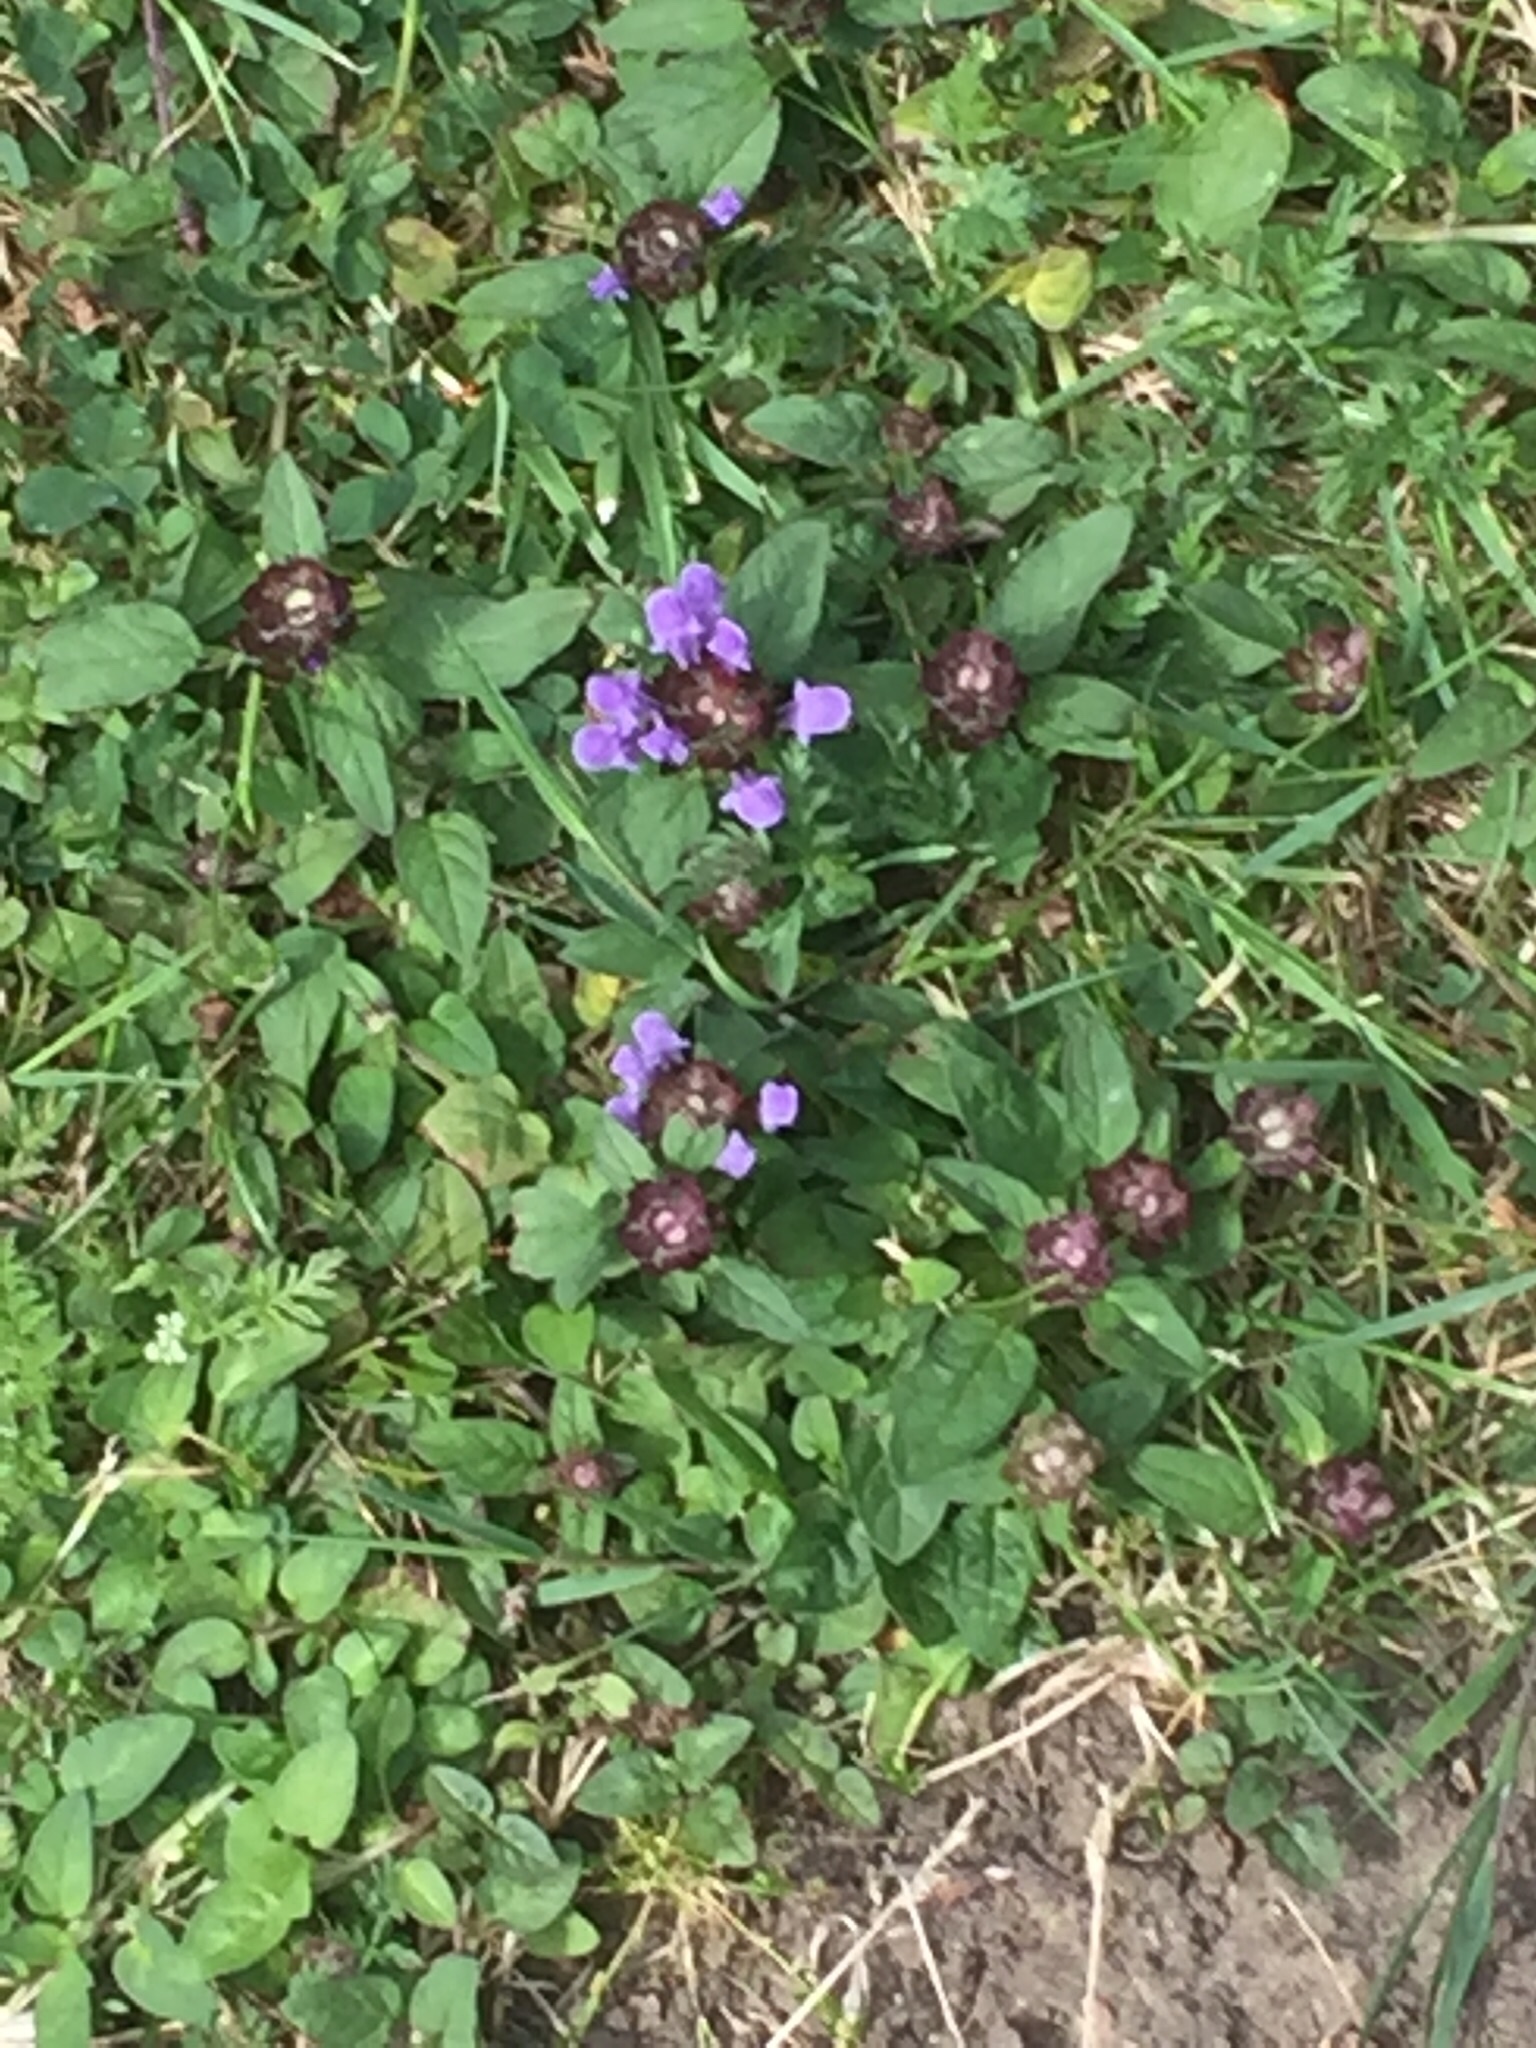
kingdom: Plantae
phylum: Tracheophyta
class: Magnoliopsida
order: Lamiales
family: Lamiaceae
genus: Prunella
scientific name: Prunella vulgaris
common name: Heal-all
